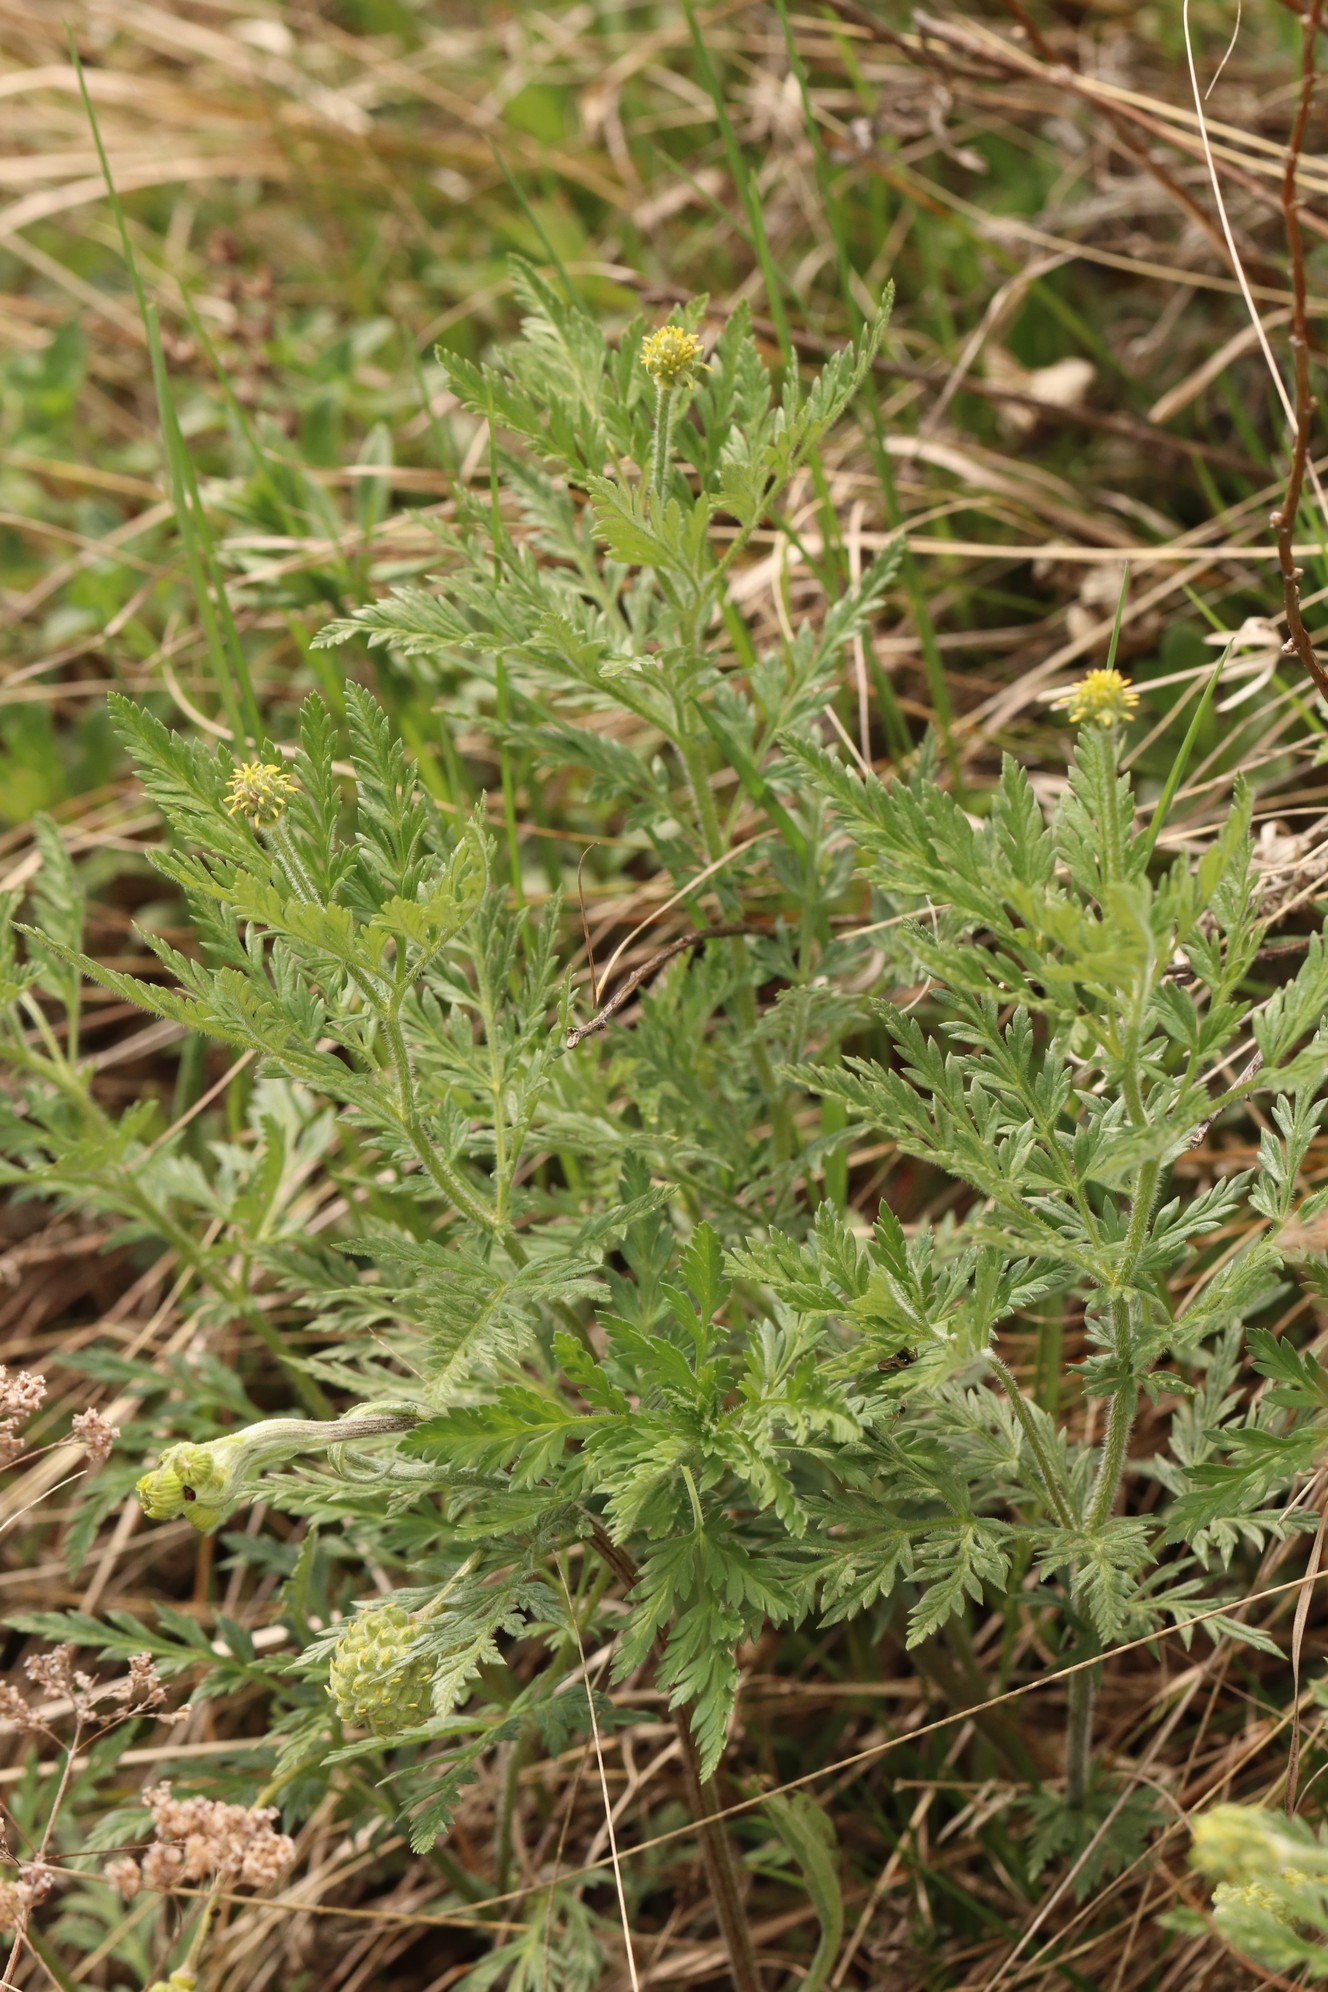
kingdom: Plantae
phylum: Tracheophyta
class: Magnoliopsida
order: Ranunculales
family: Ranunculaceae
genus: Adonis
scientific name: Adonis villosa
